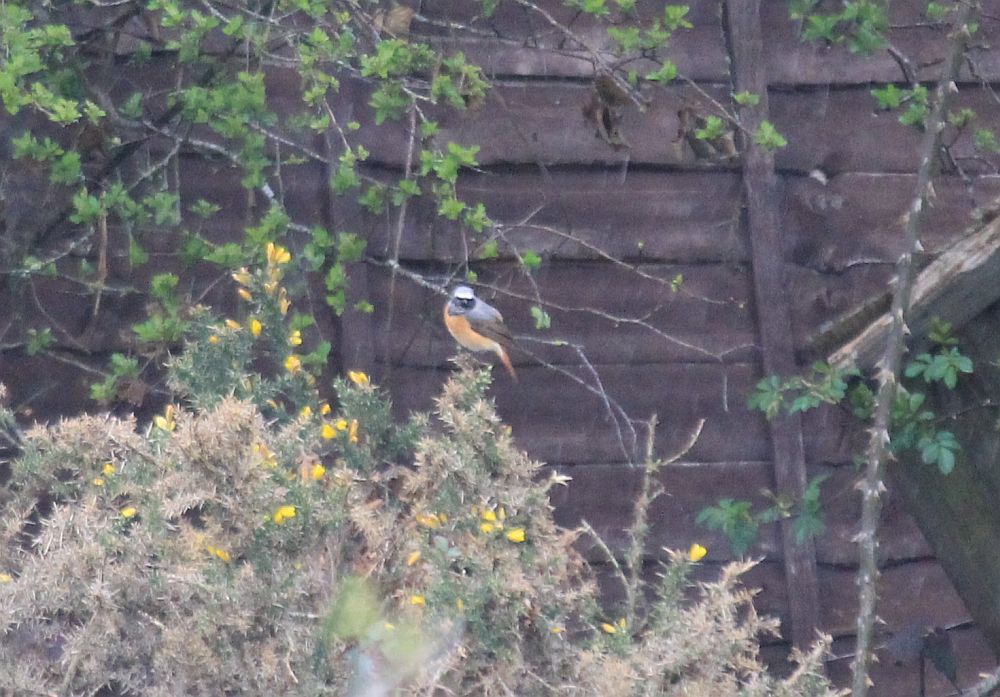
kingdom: Animalia
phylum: Chordata
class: Aves
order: Passeriformes
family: Muscicapidae
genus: Phoenicurus
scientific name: Phoenicurus phoenicurus
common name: Common redstart
